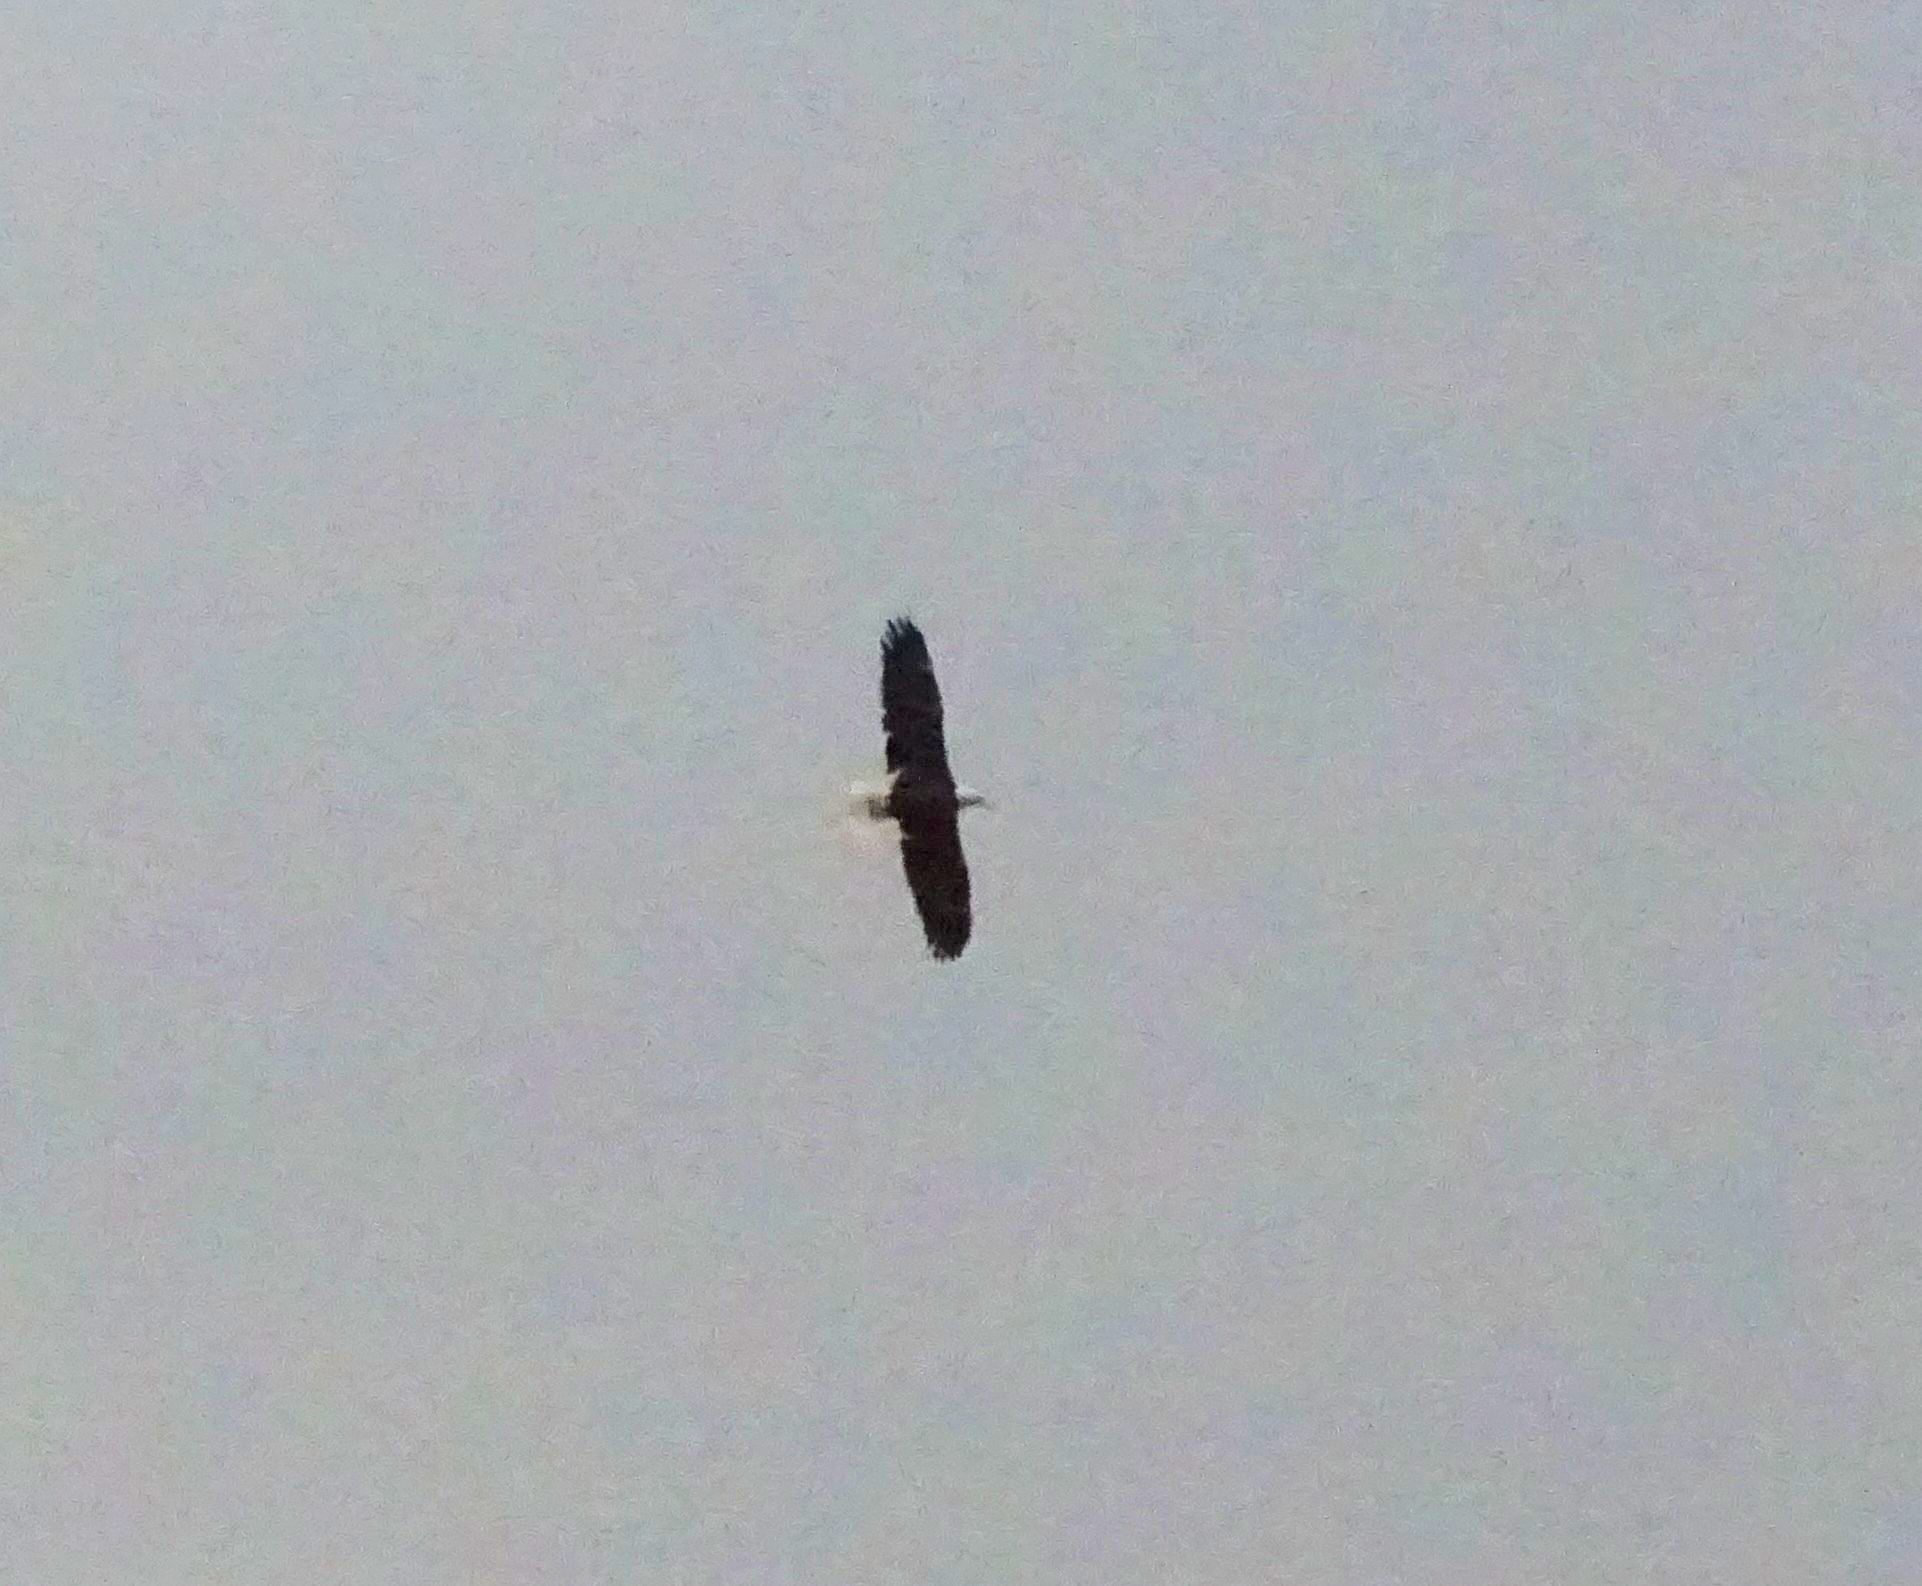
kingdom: Animalia
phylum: Chordata
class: Aves
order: Accipitriformes
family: Accipitridae
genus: Haliaeetus
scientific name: Haliaeetus leucocephalus
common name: Bald eagle
